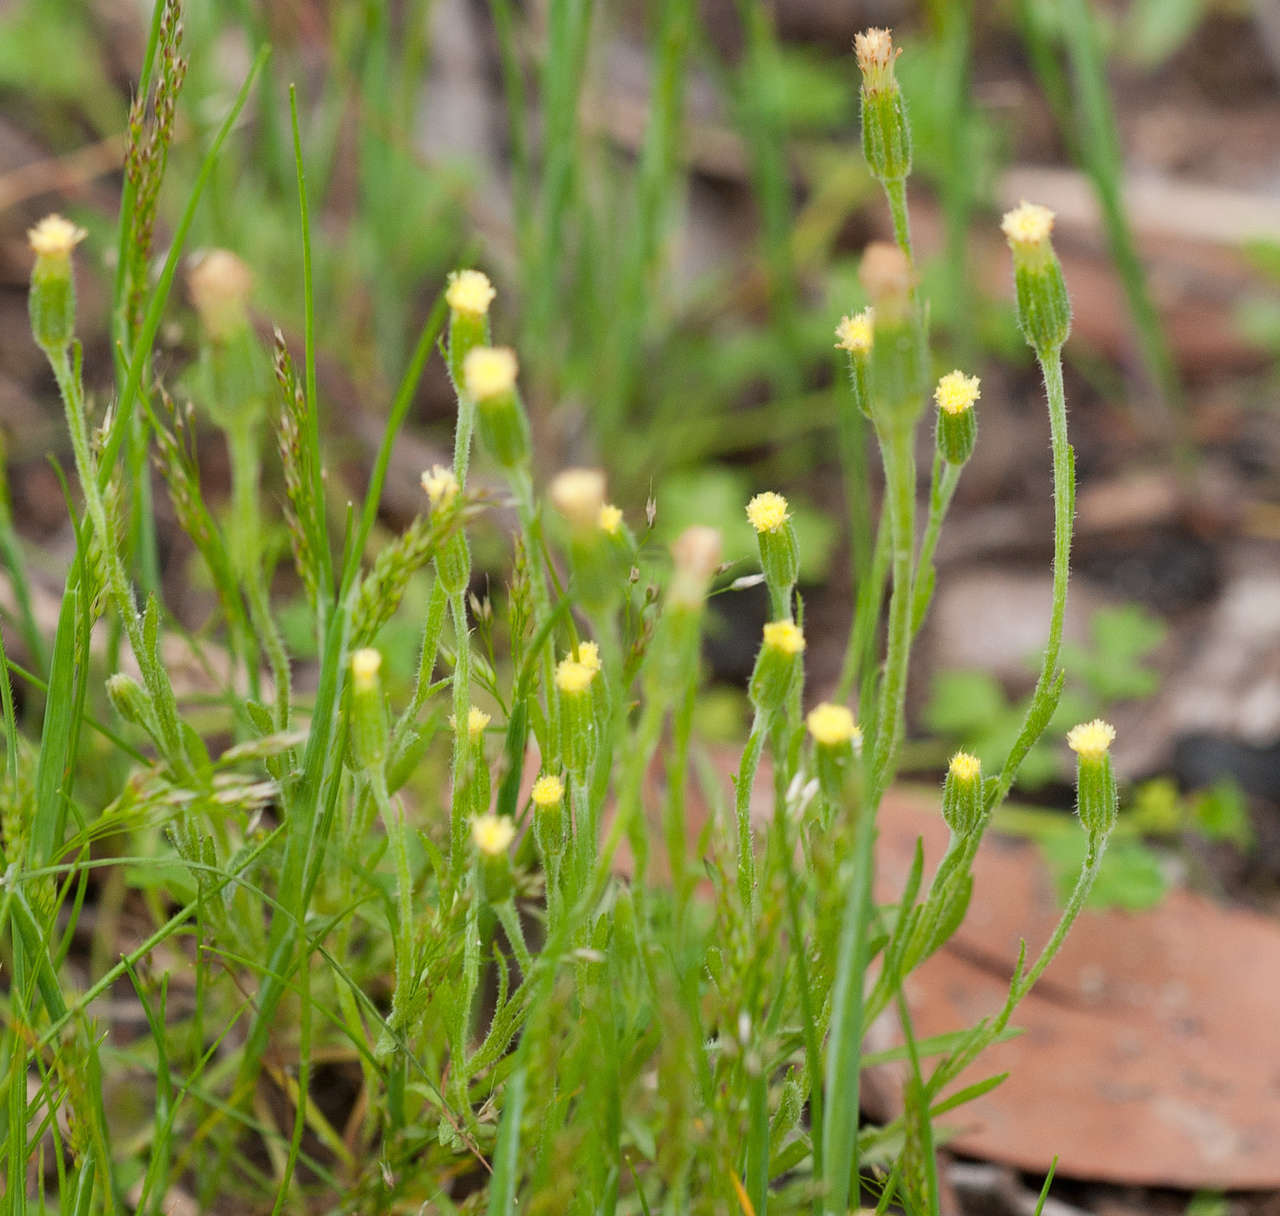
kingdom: Plantae
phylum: Tracheophyta
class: Magnoliopsida
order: Asterales
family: Asteraceae
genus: Millotia
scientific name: Millotia tenuifolia
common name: Soft millotia
